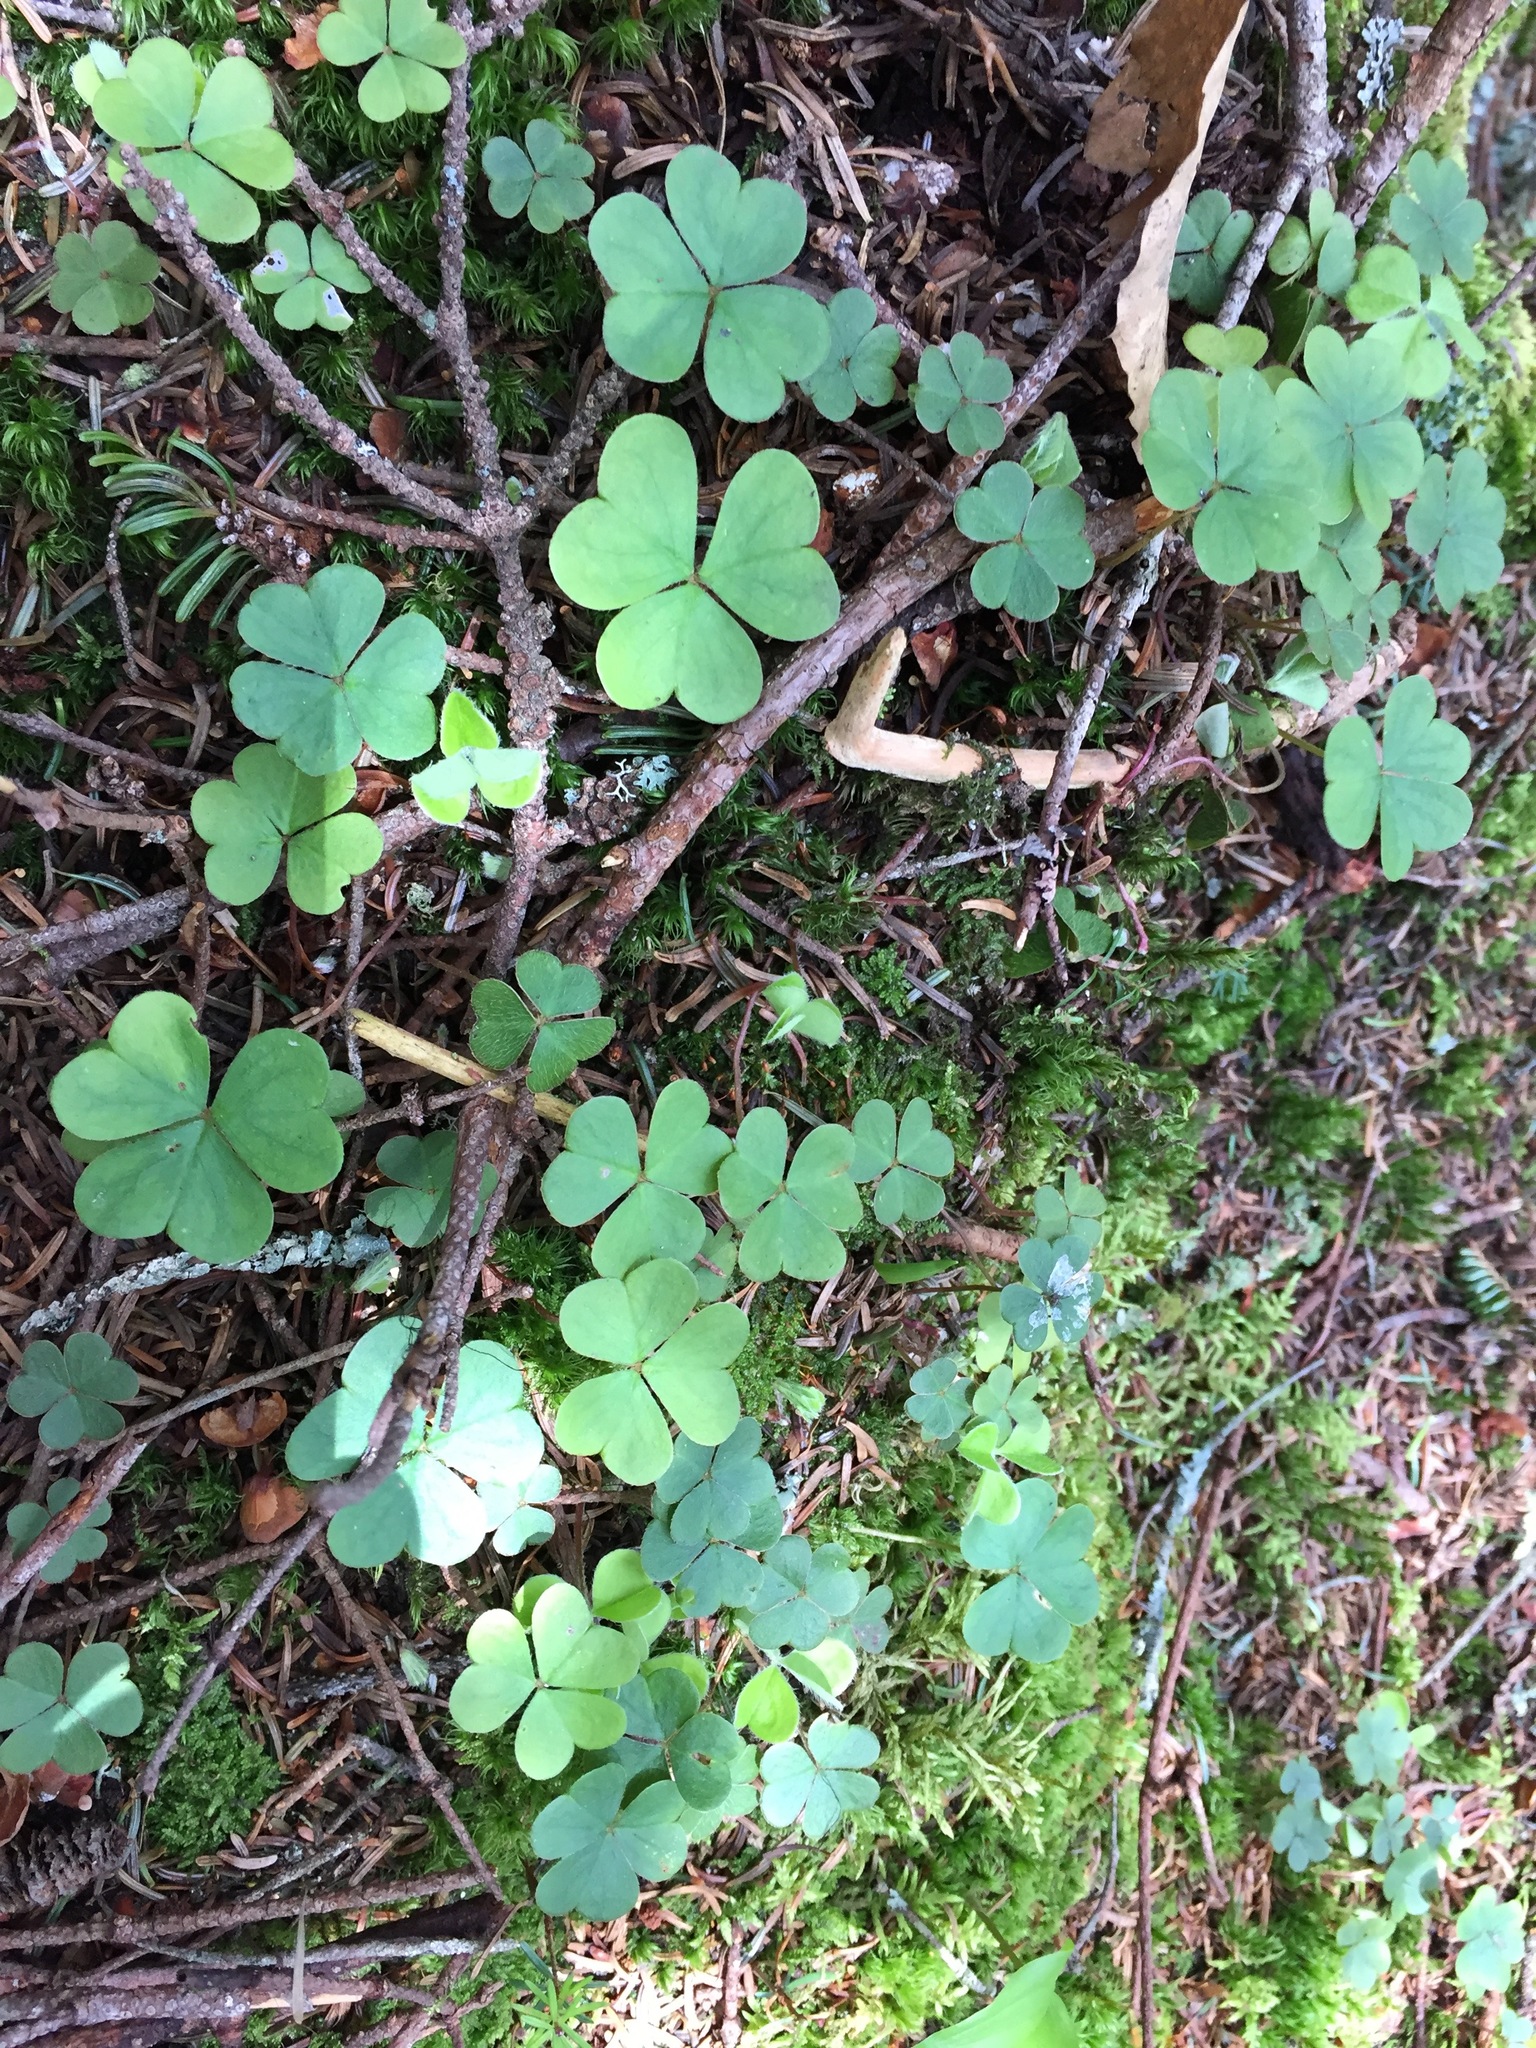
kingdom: Plantae
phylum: Tracheophyta
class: Magnoliopsida
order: Oxalidales
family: Oxalidaceae
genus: Oxalis
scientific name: Oxalis montana
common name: American wood-sorrel
